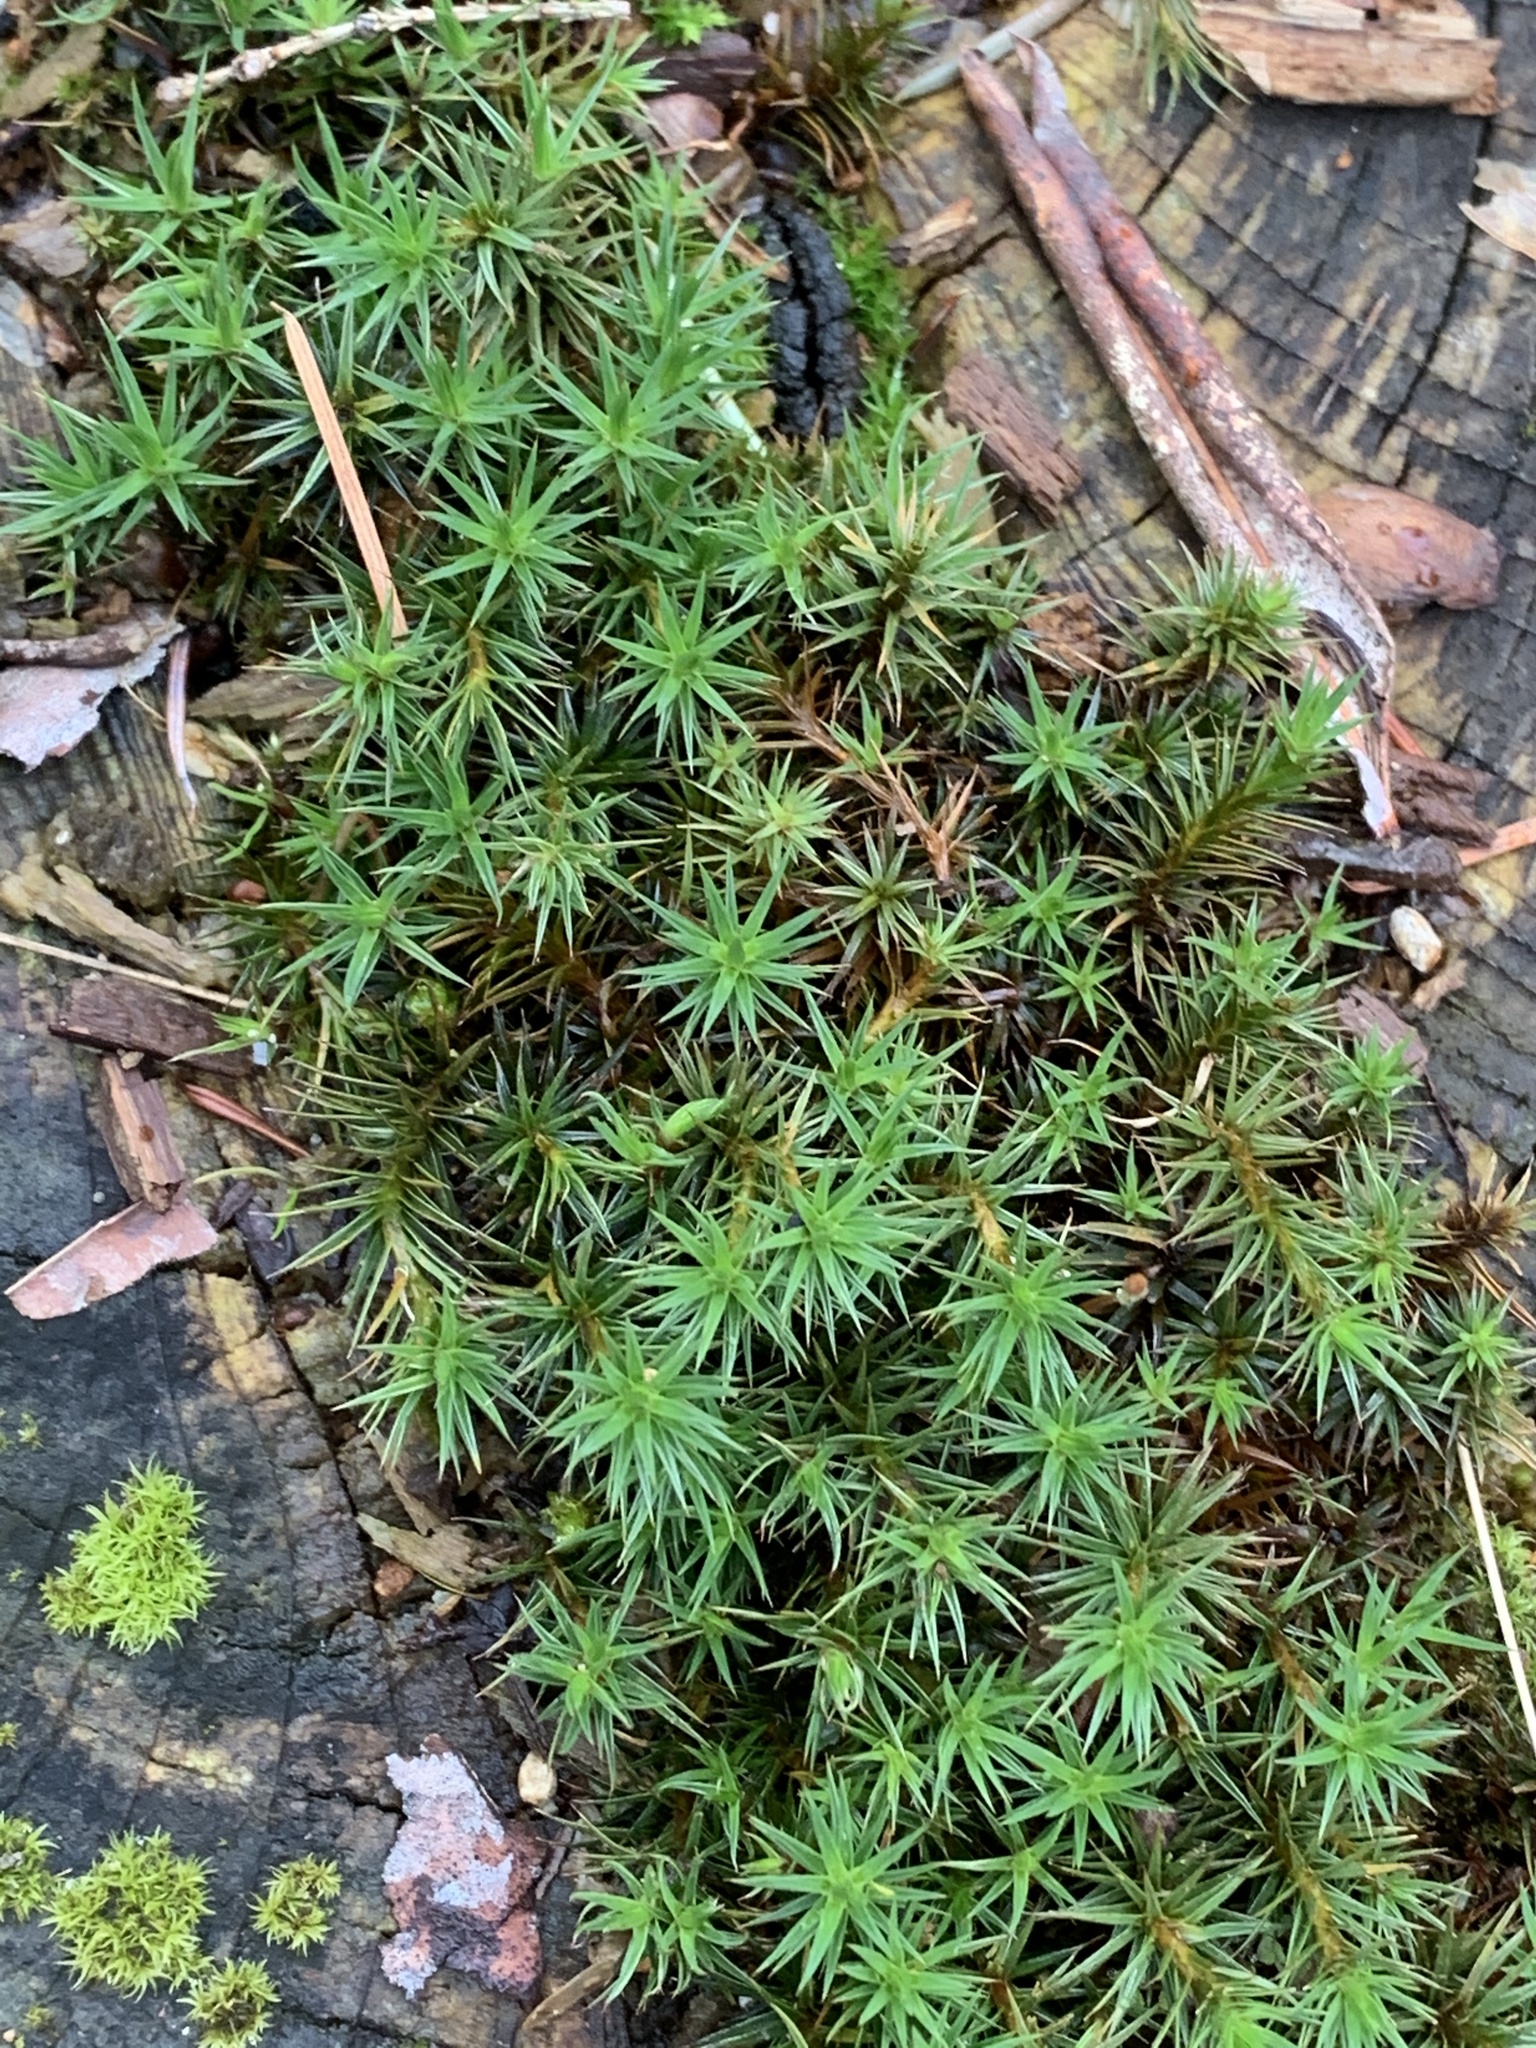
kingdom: Plantae
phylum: Bryophyta
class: Polytrichopsida
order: Polytrichales
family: Polytrichaceae
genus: Polytrichum
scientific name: Polytrichum juniperinum
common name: Juniper haircap moss
